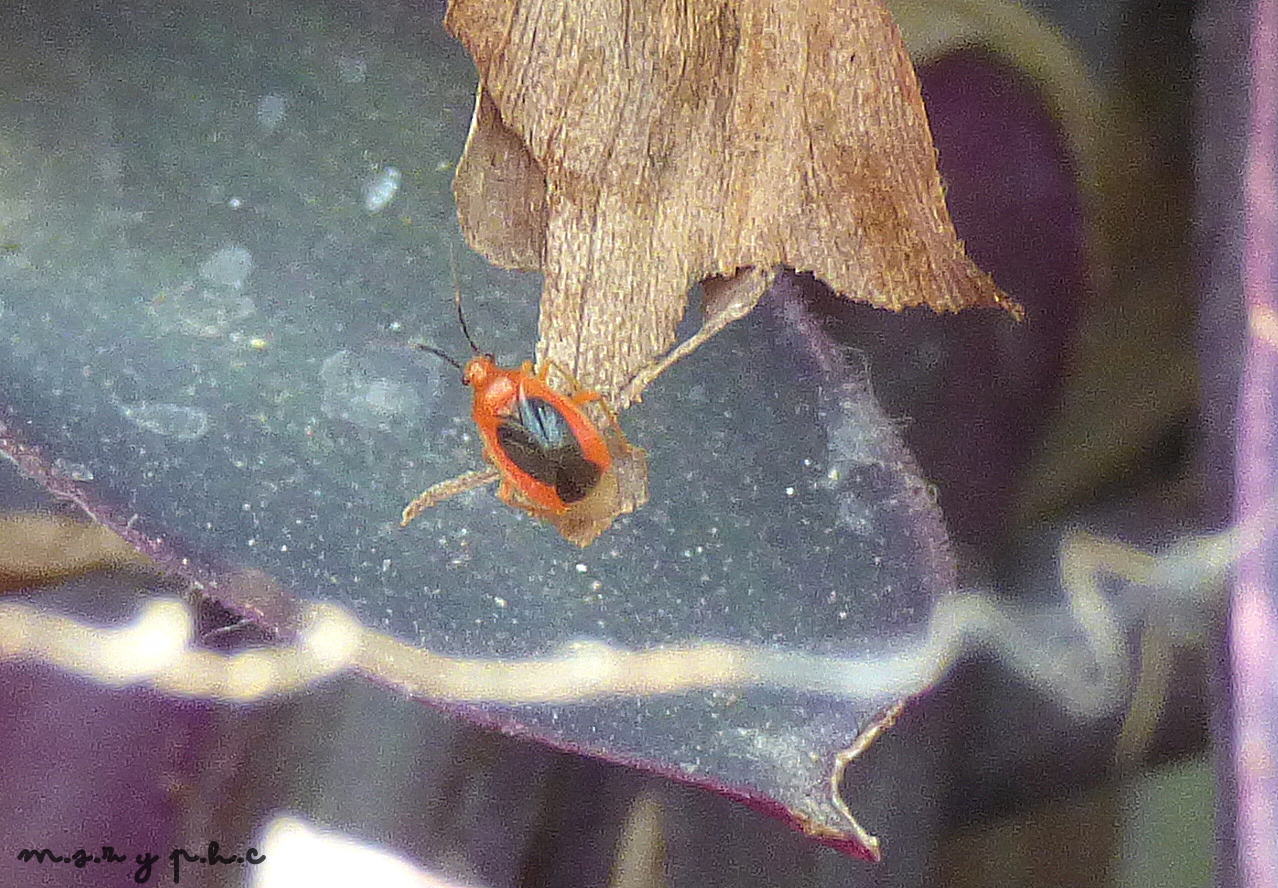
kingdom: Animalia
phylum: Arthropoda
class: Insecta
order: Hemiptera
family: Miridae
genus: Tenthecoris
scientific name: Tenthecoris bicolor
